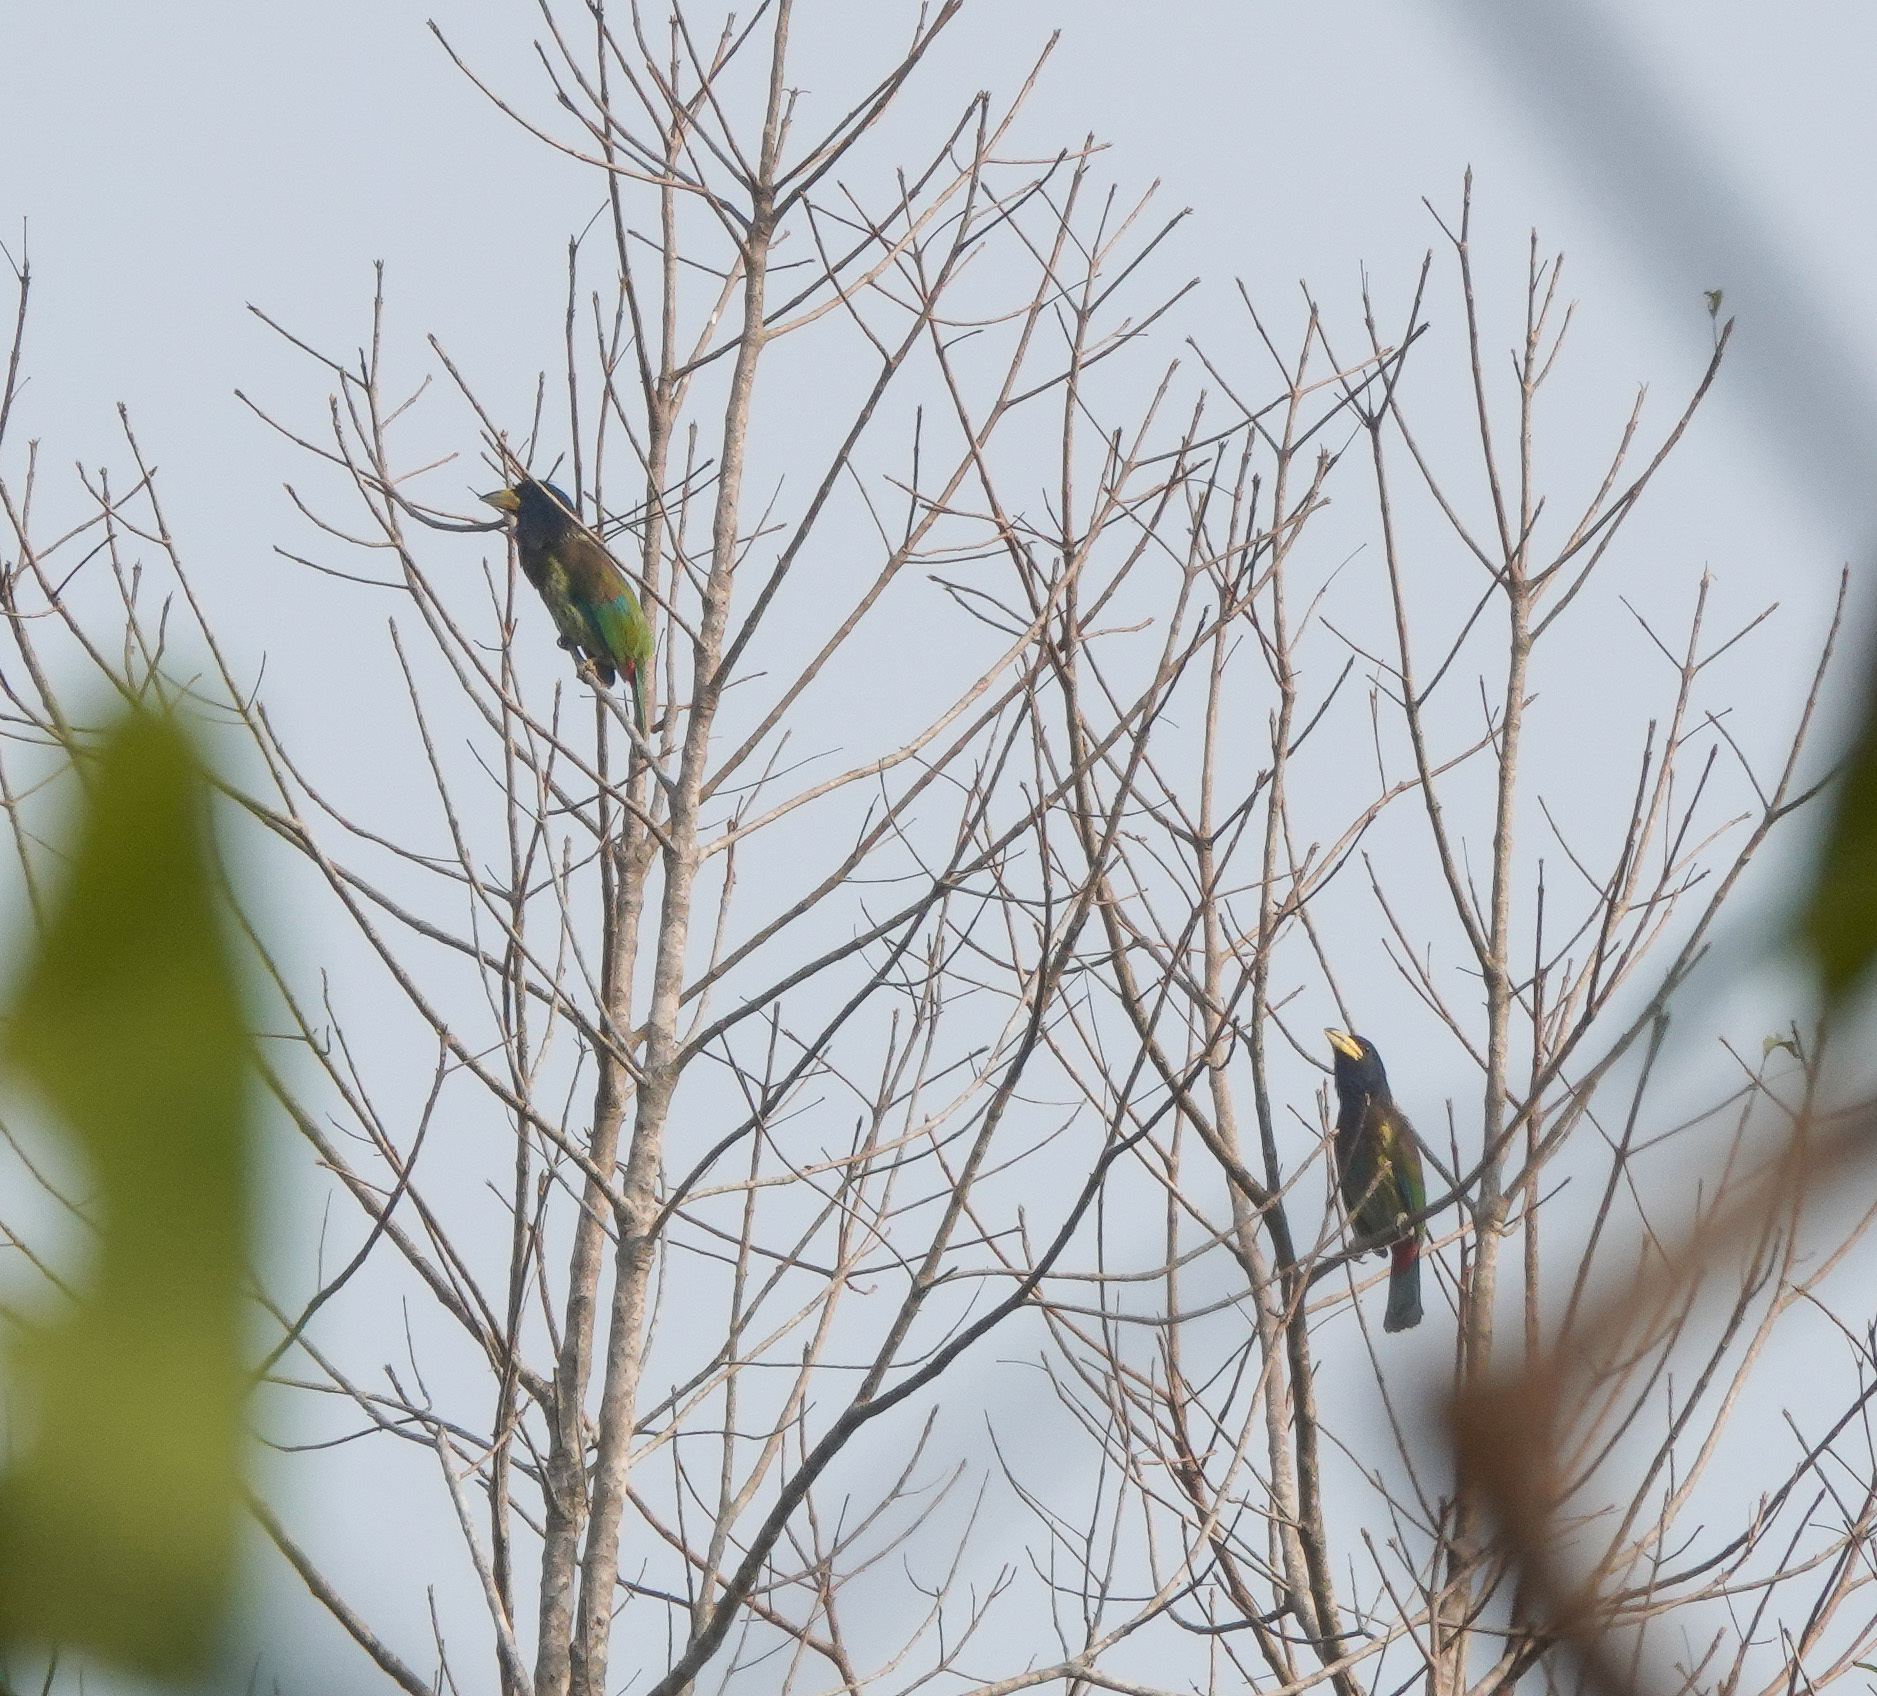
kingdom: Animalia
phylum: Chordata
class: Aves
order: Piciformes
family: Megalaimidae
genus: Psilopogon
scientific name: Psilopogon virens
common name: Great barbet
